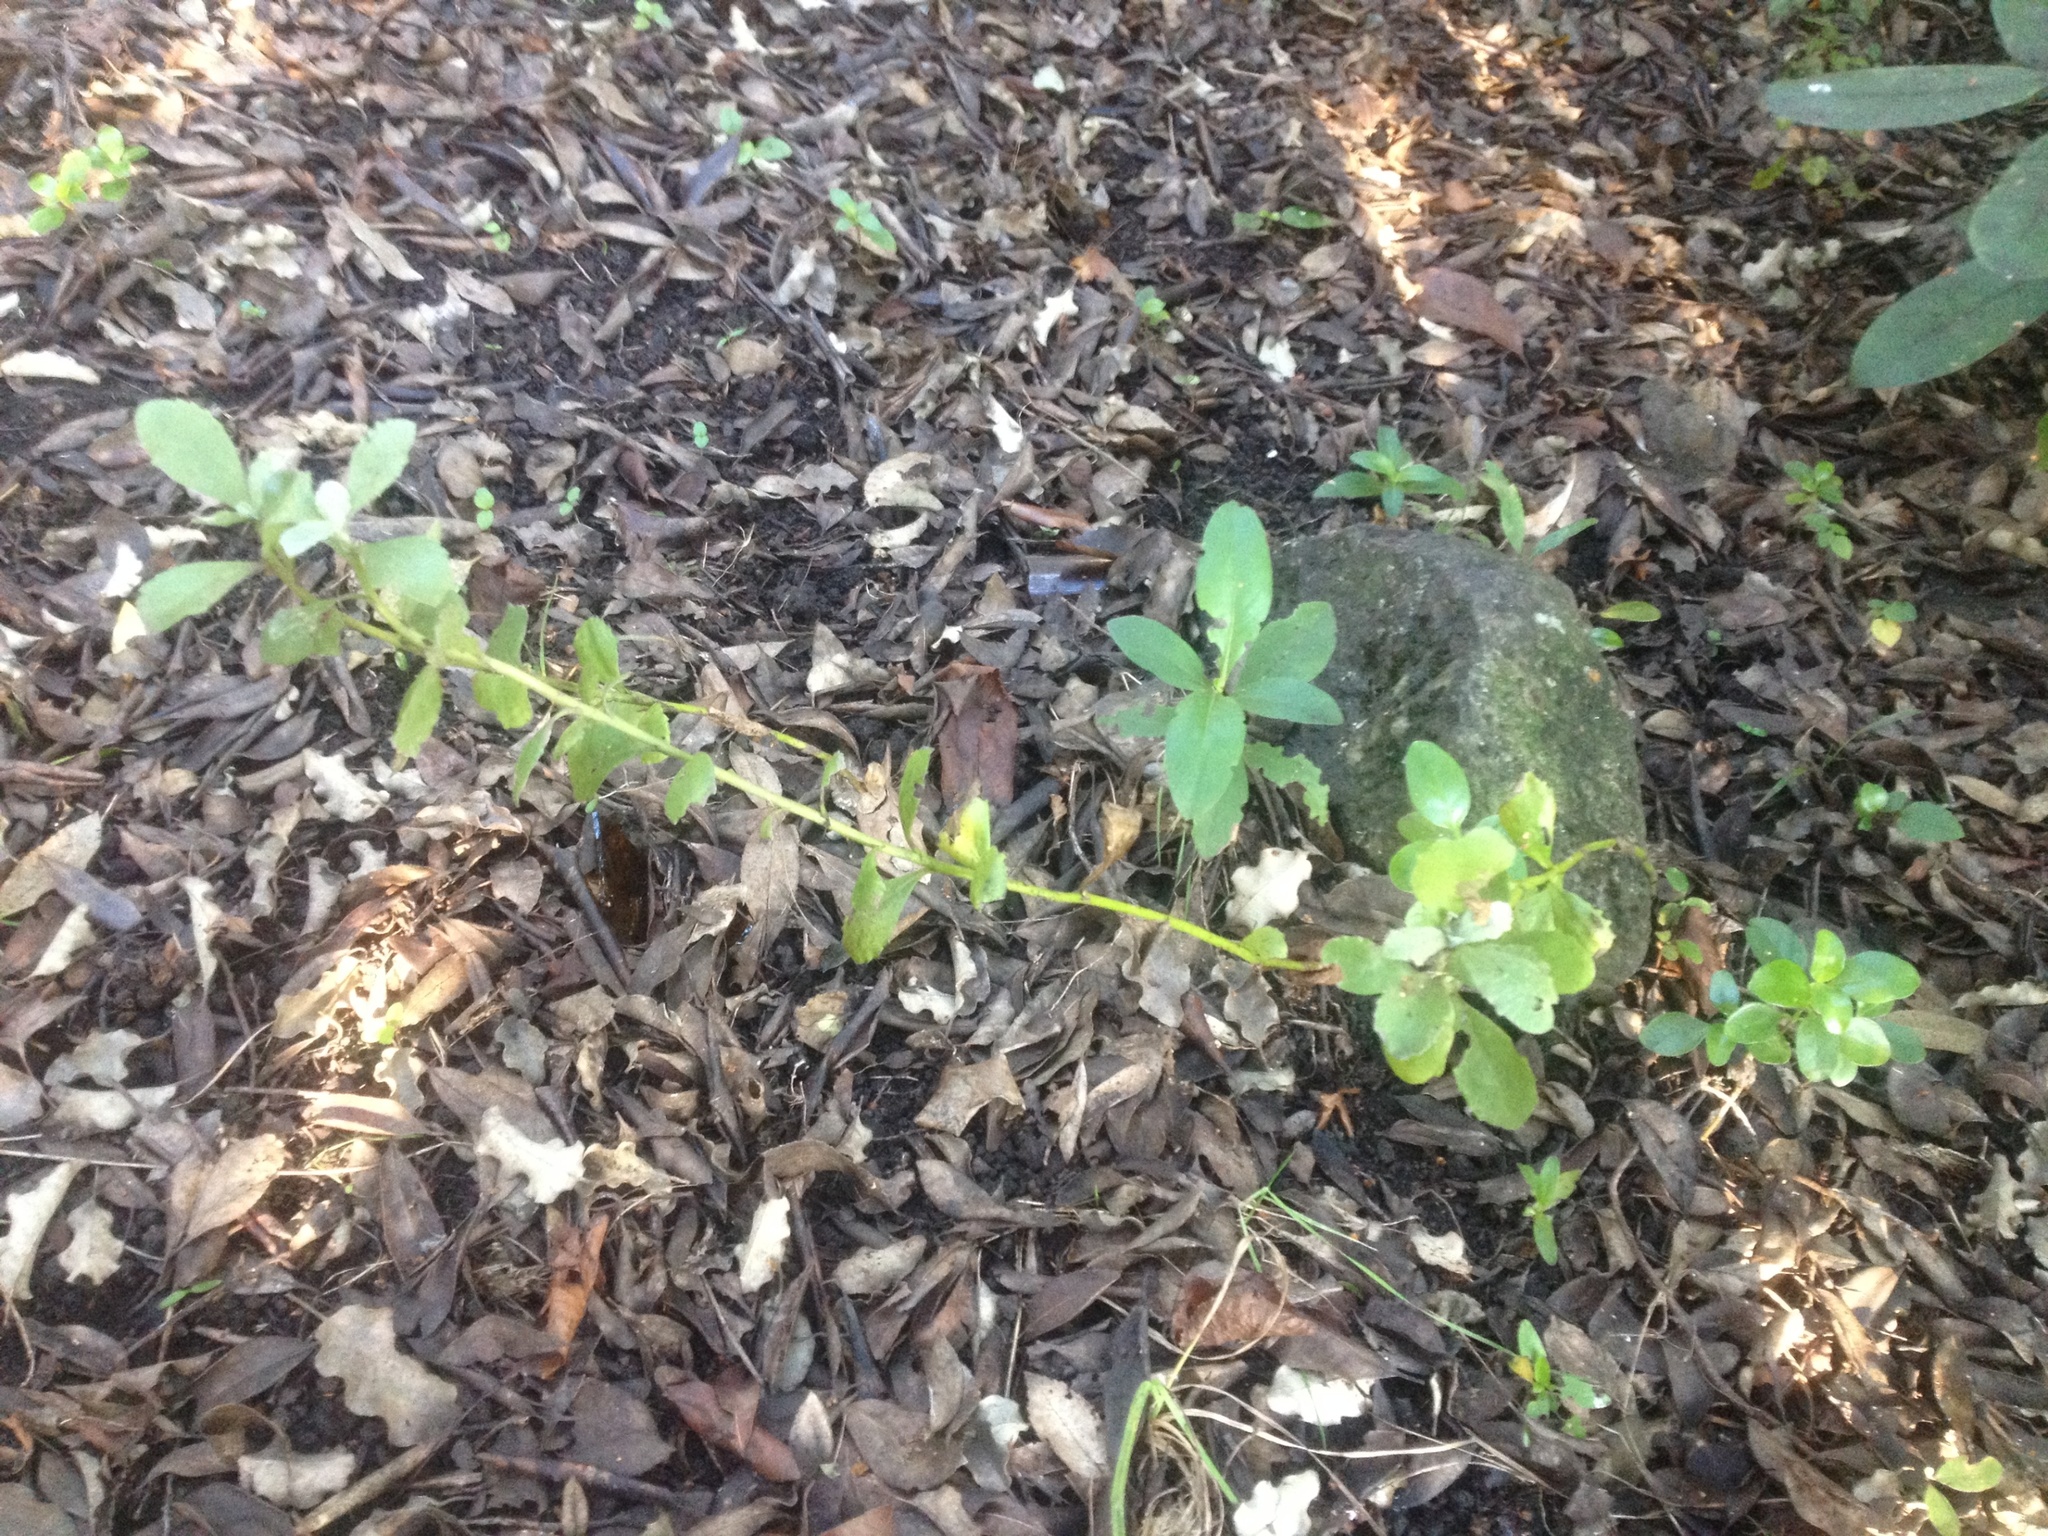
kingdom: Plantae
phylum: Tracheophyta
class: Magnoliopsida
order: Asterales
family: Asteraceae
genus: Osteospermum
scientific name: Osteospermum moniliferum
